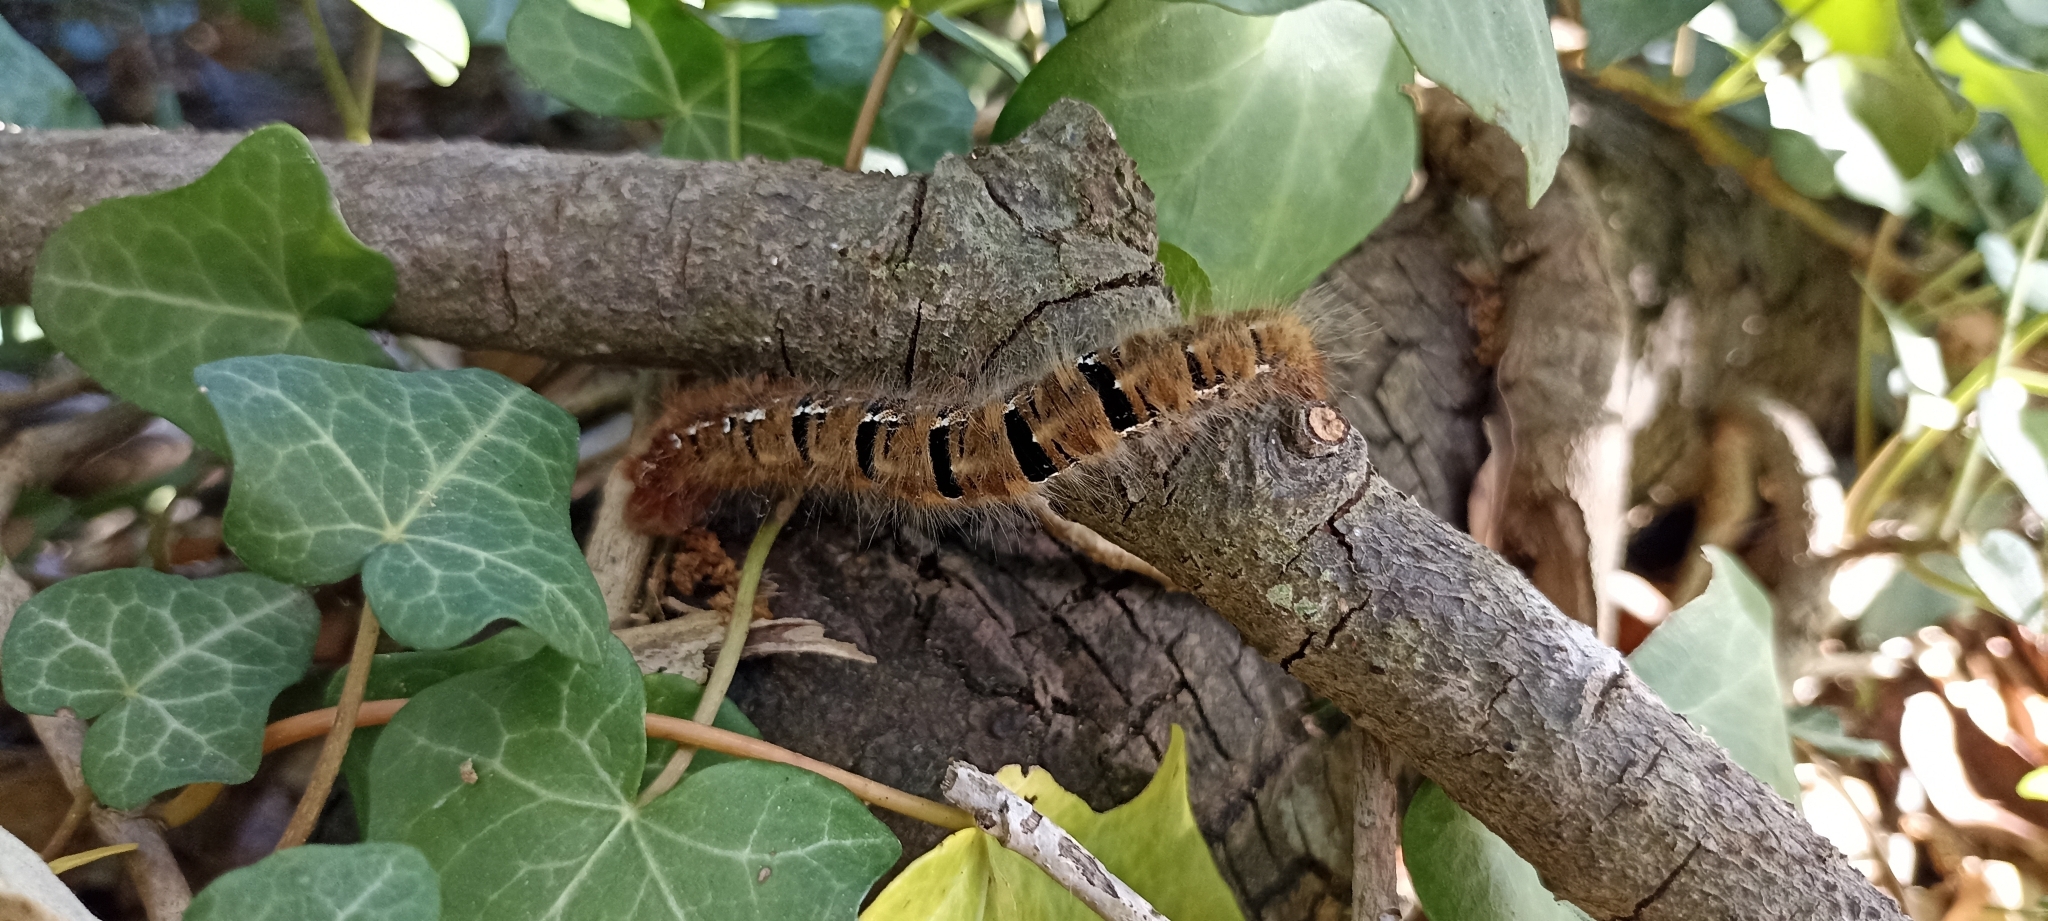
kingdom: Animalia
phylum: Arthropoda
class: Insecta
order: Lepidoptera
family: Lasiocampidae
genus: Lasiocampa
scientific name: Lasiocampa quercus
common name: Oak eggar
